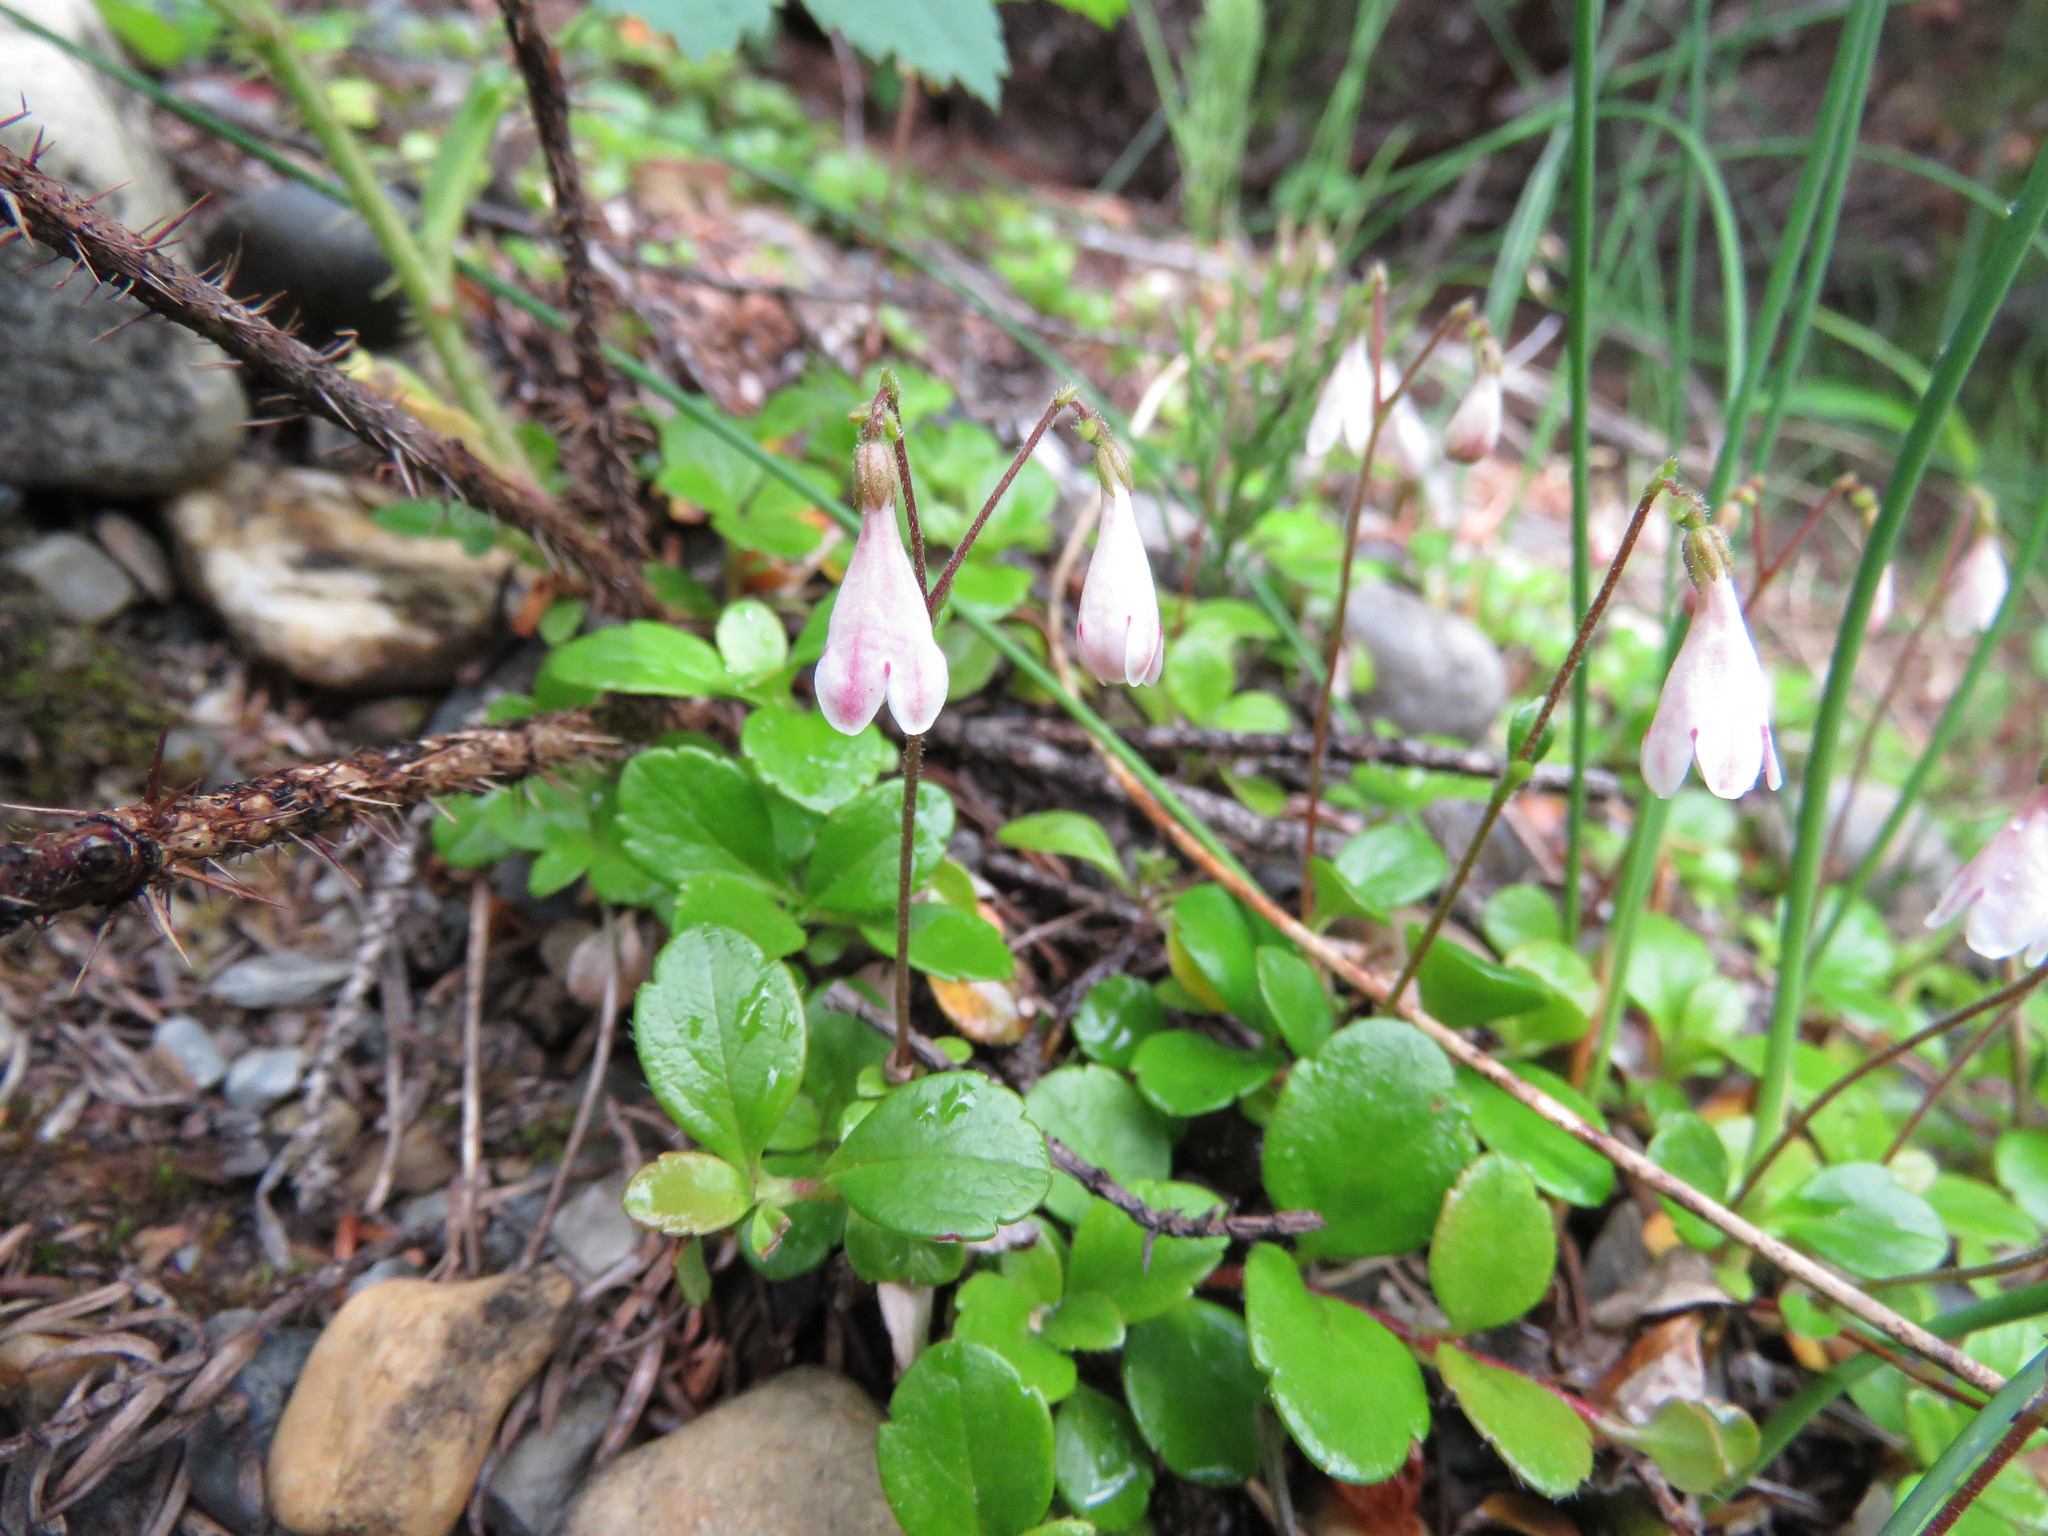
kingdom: Plantae
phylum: Tracheophyta
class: Magnoliopsida
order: Dipsacales
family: Caprifoliaceae
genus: Linnaea
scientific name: Linnaea borealis
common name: Twinflower
